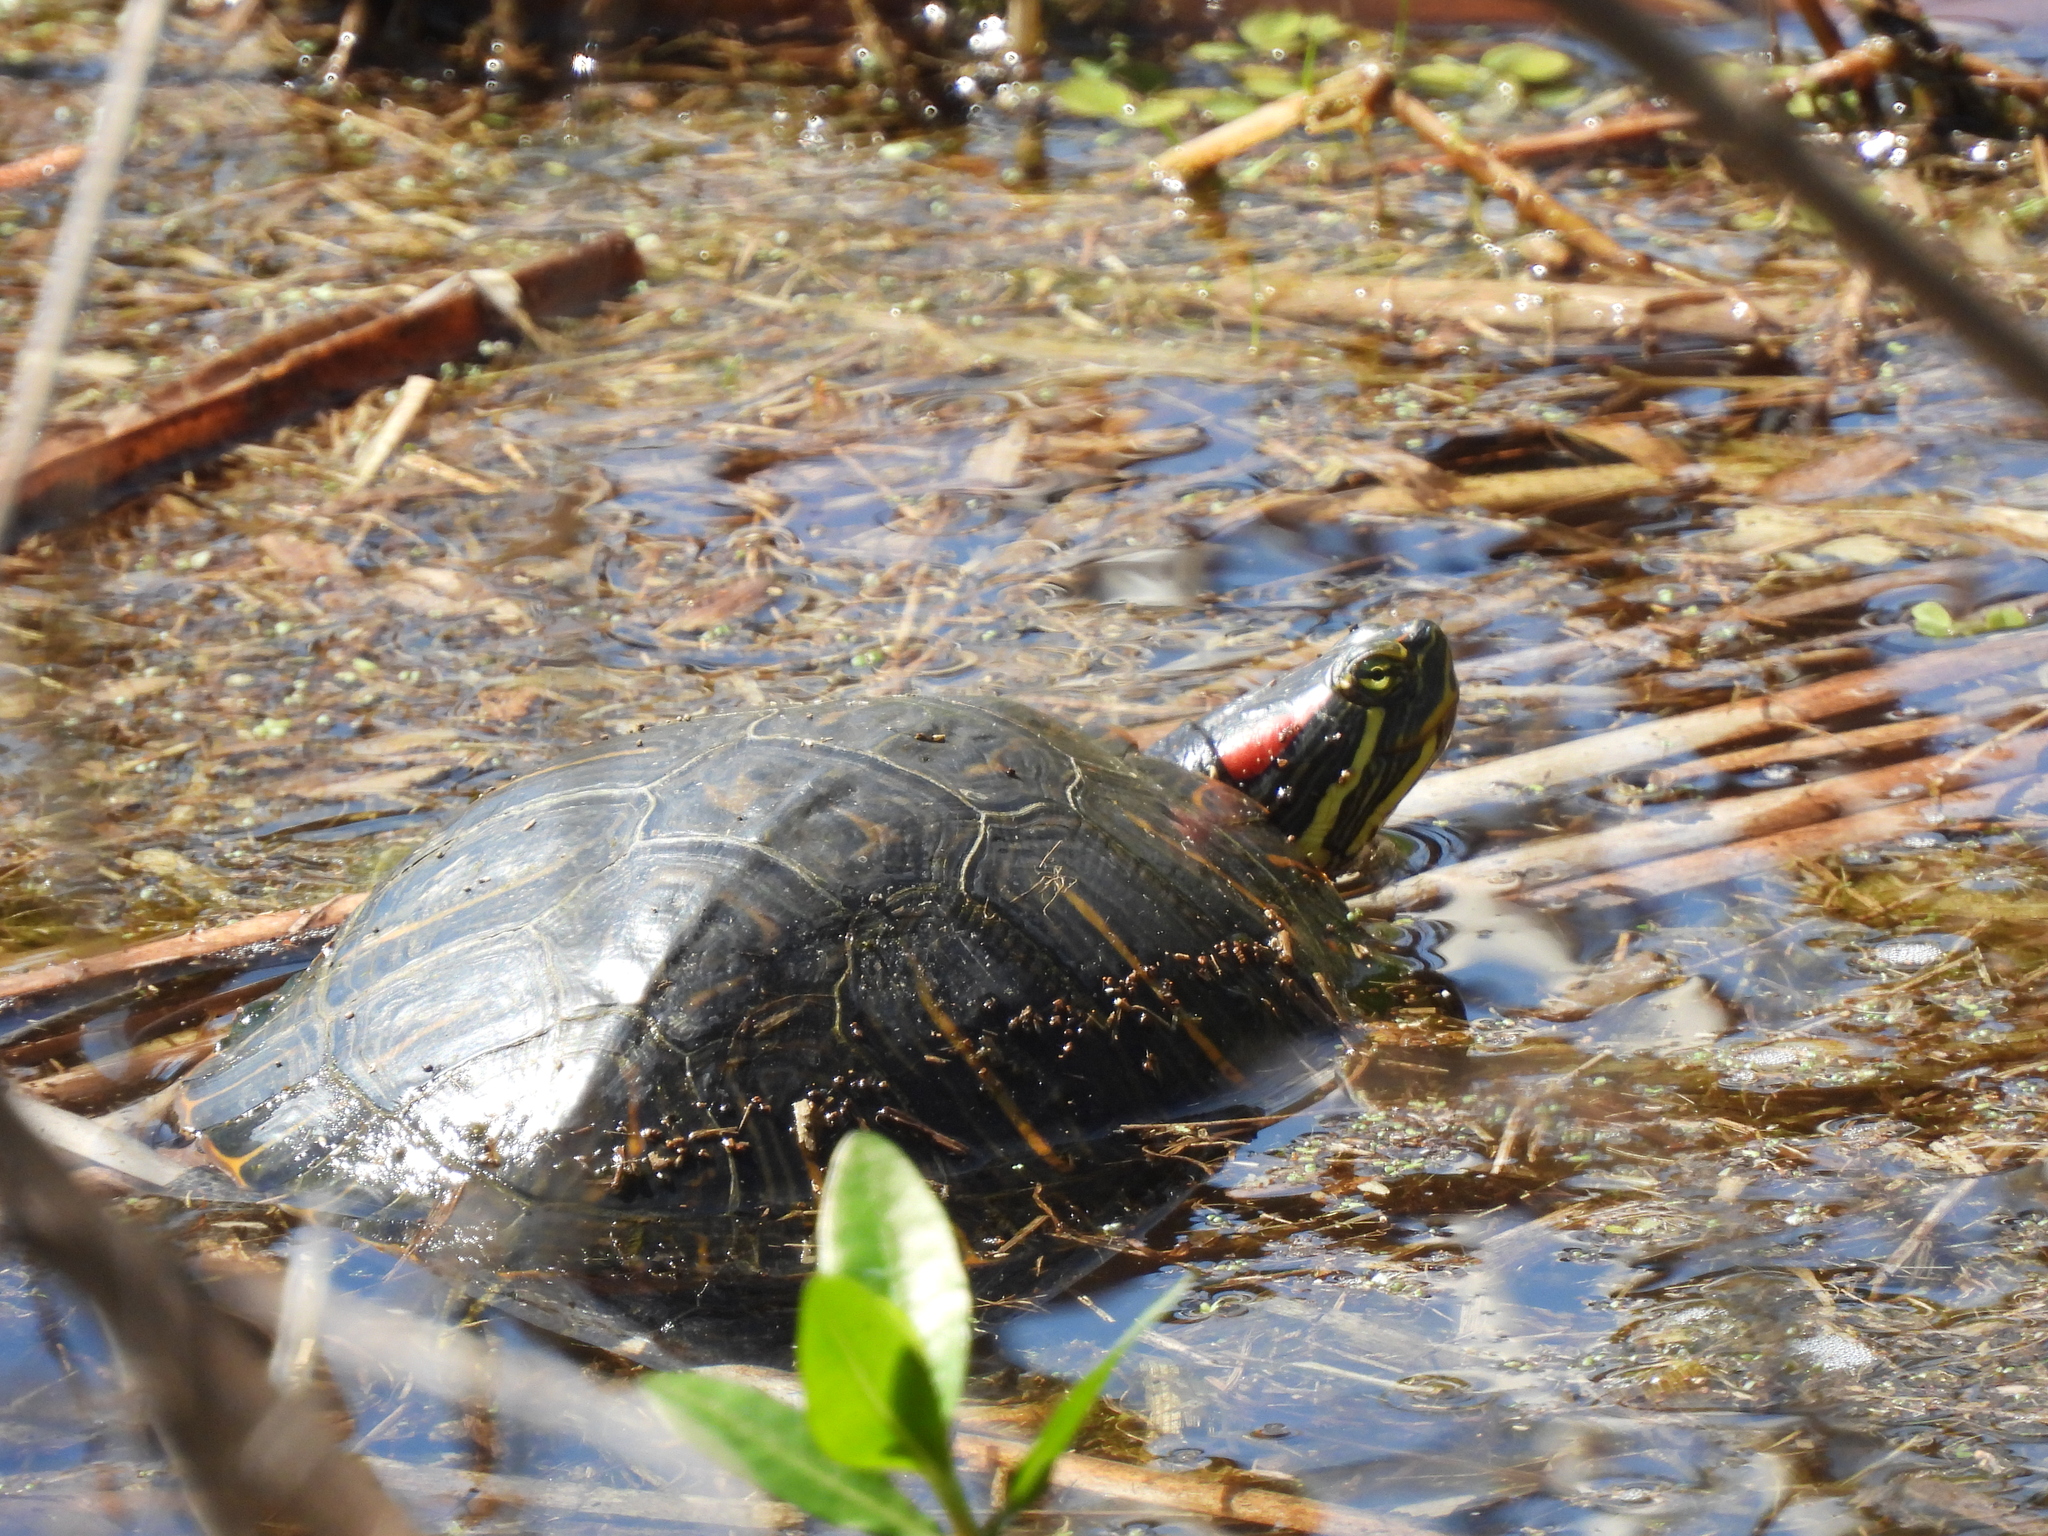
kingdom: Animalia
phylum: Chordata
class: Testudines
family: Emydidae
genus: Trachemys
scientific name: Trachemys scripta
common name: Slider
